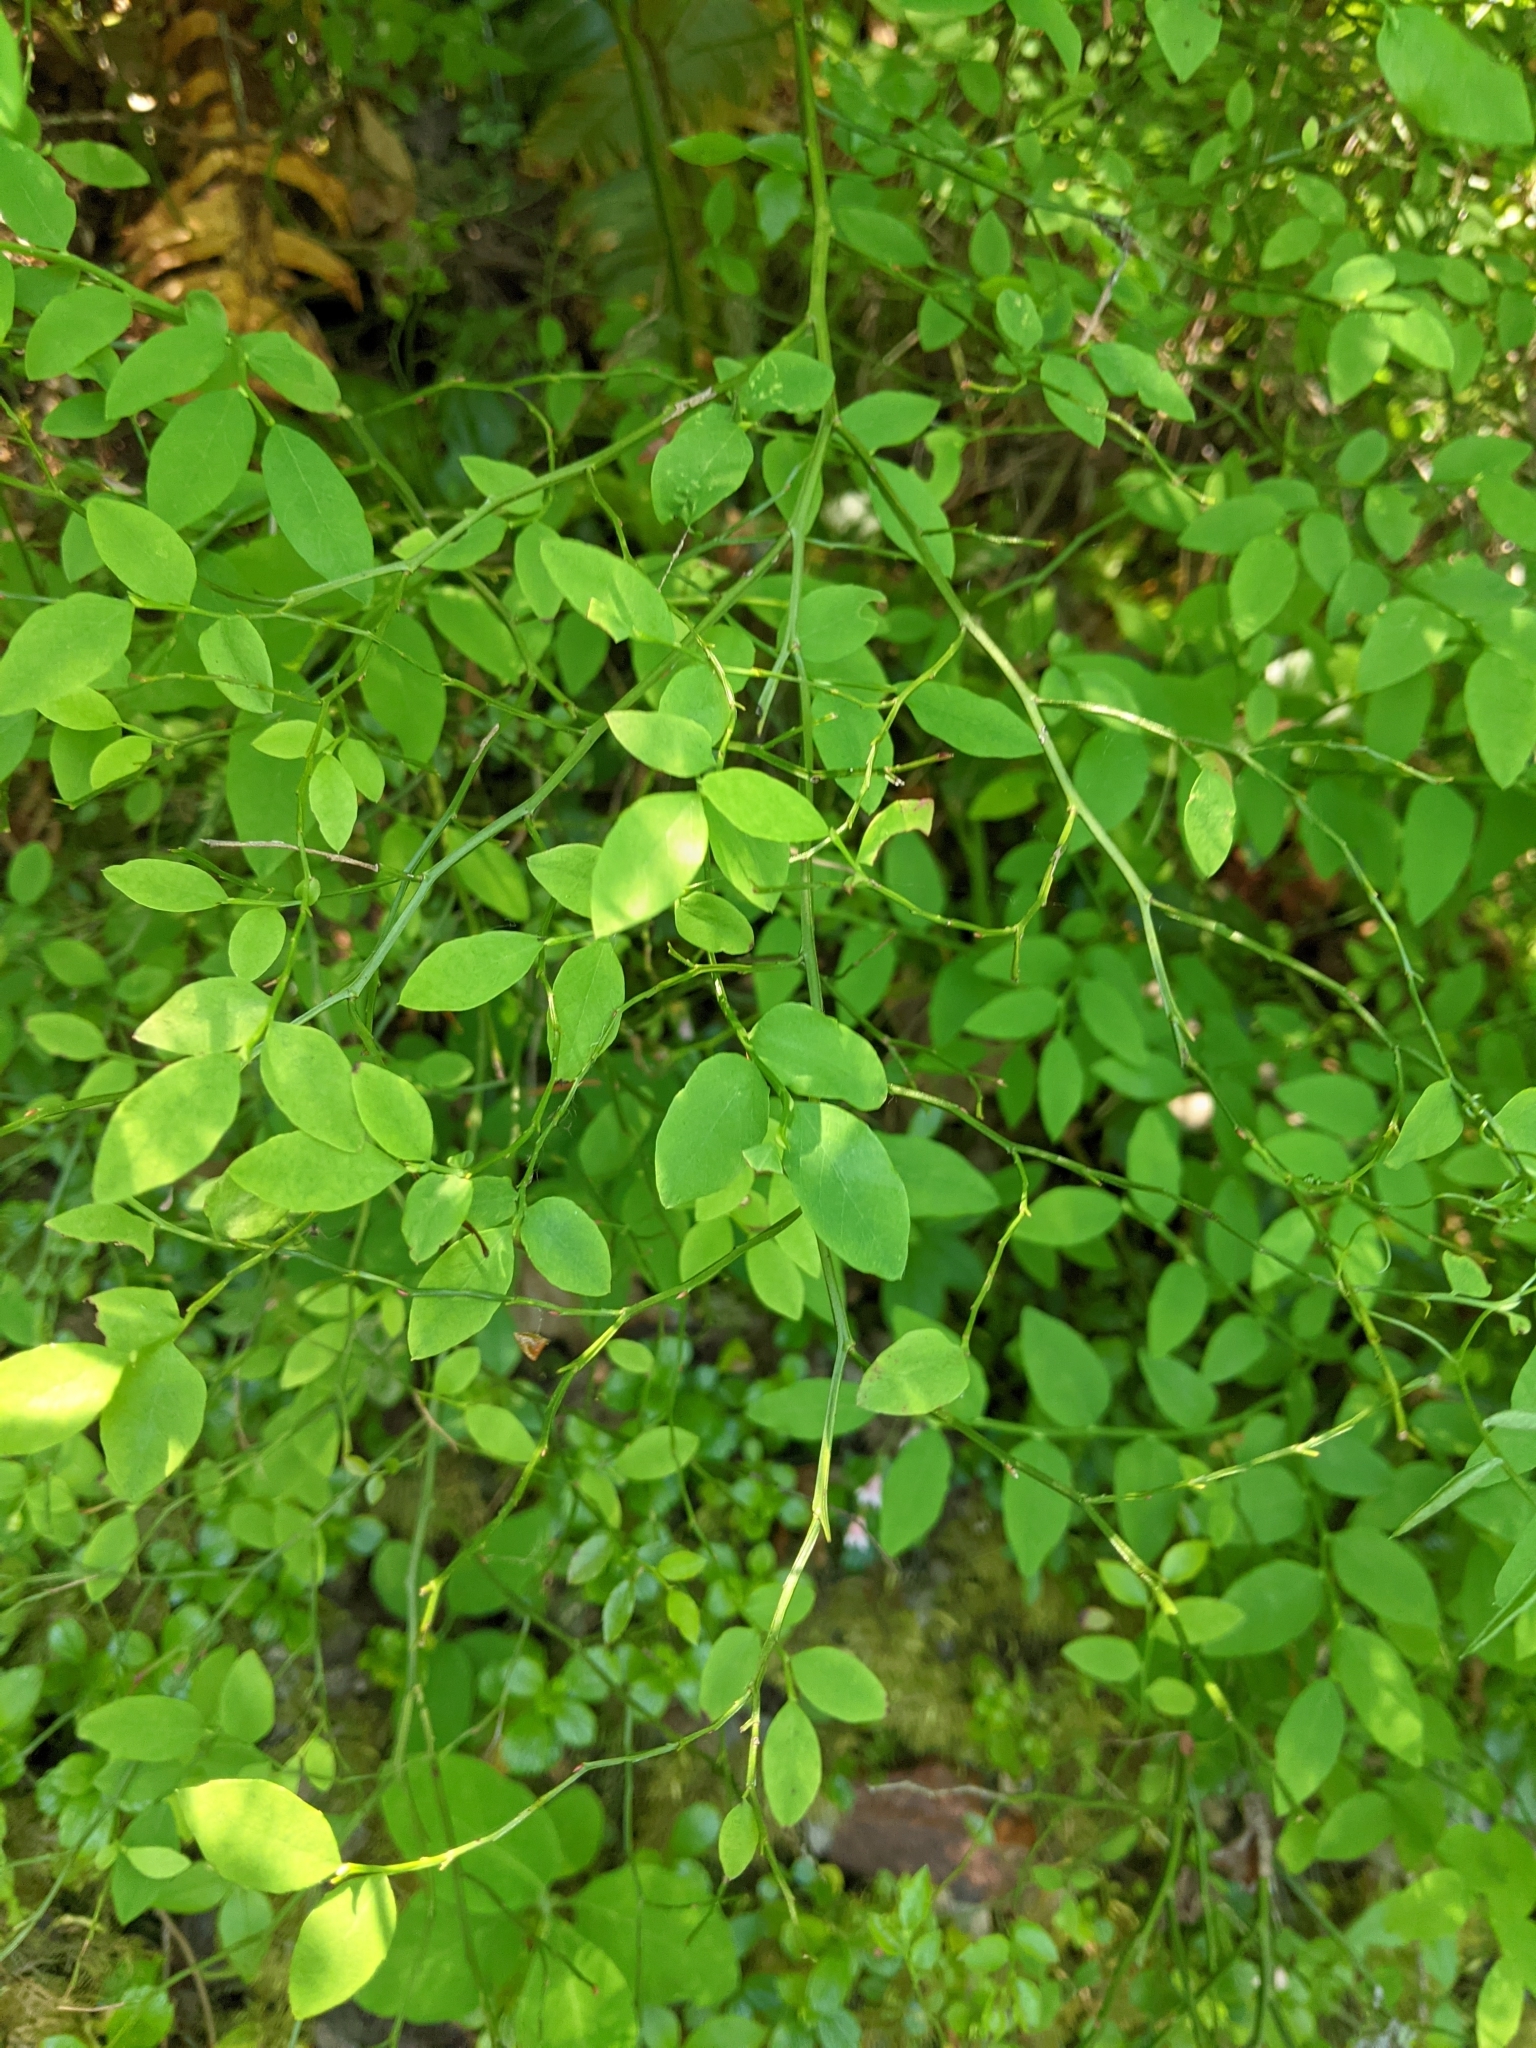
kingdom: Plantae
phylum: Tracheophyta
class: Magnoliopsida
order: Ericales
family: Ericaceae
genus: Vaccinium
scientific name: Vaccinium parvifolium
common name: Red-huckleberry
